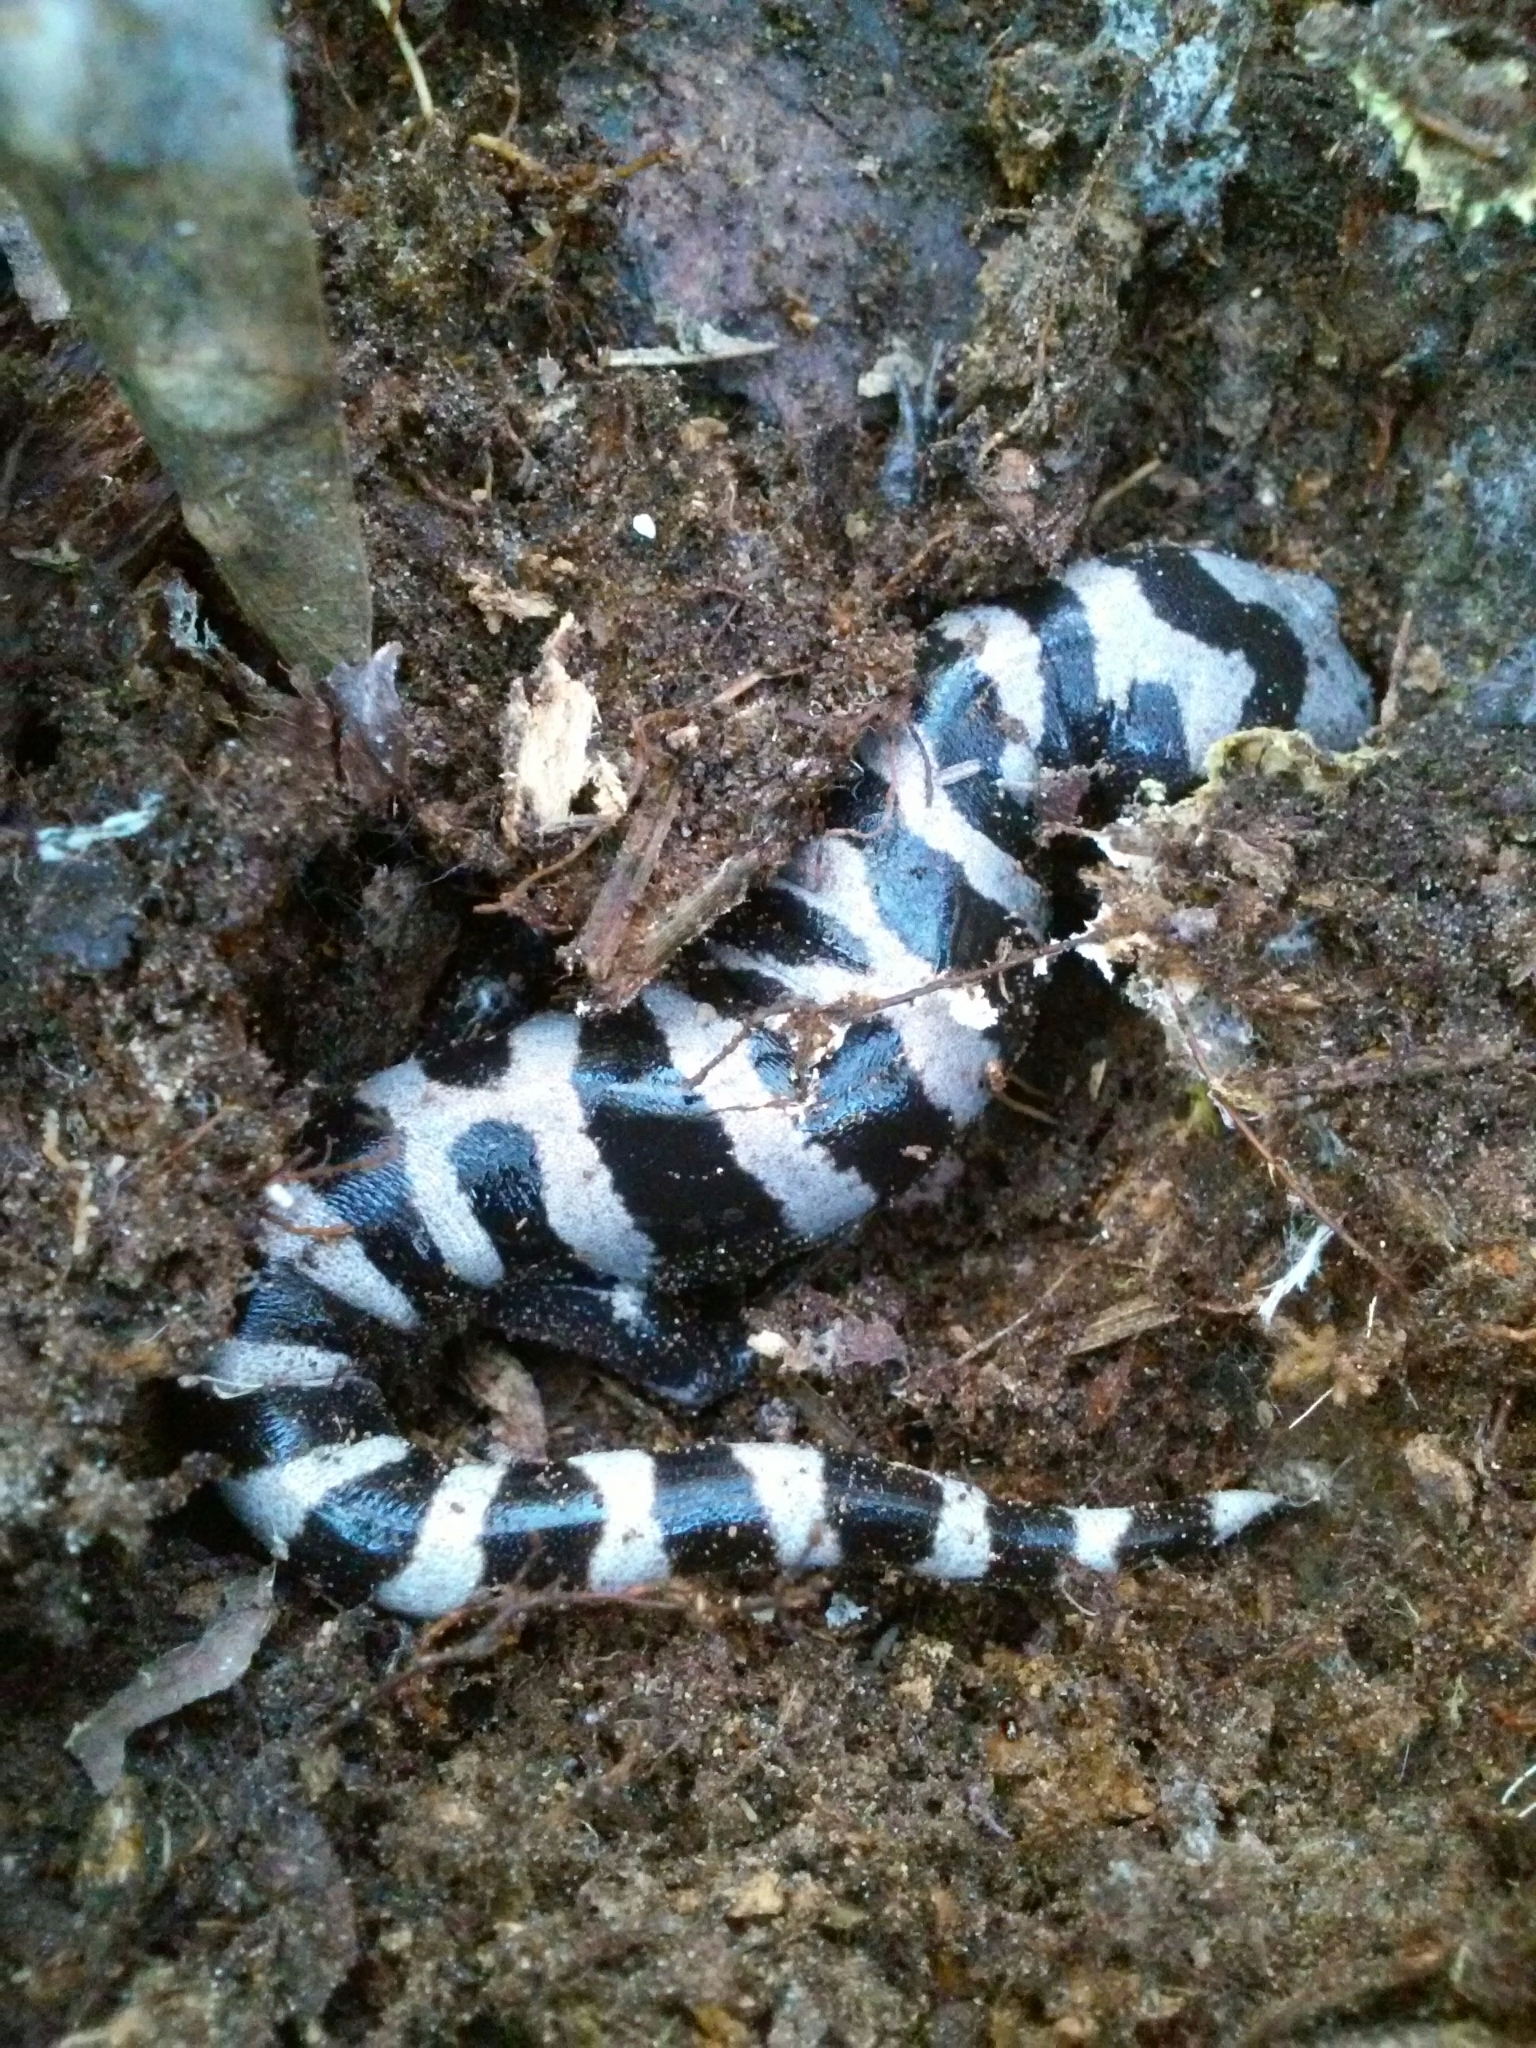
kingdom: Animalia
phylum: Chordata
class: Amphibia
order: Caudata
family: Ambystomatidae
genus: Ambystoma
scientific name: Ambystoma opacum
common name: Marbled salamander
